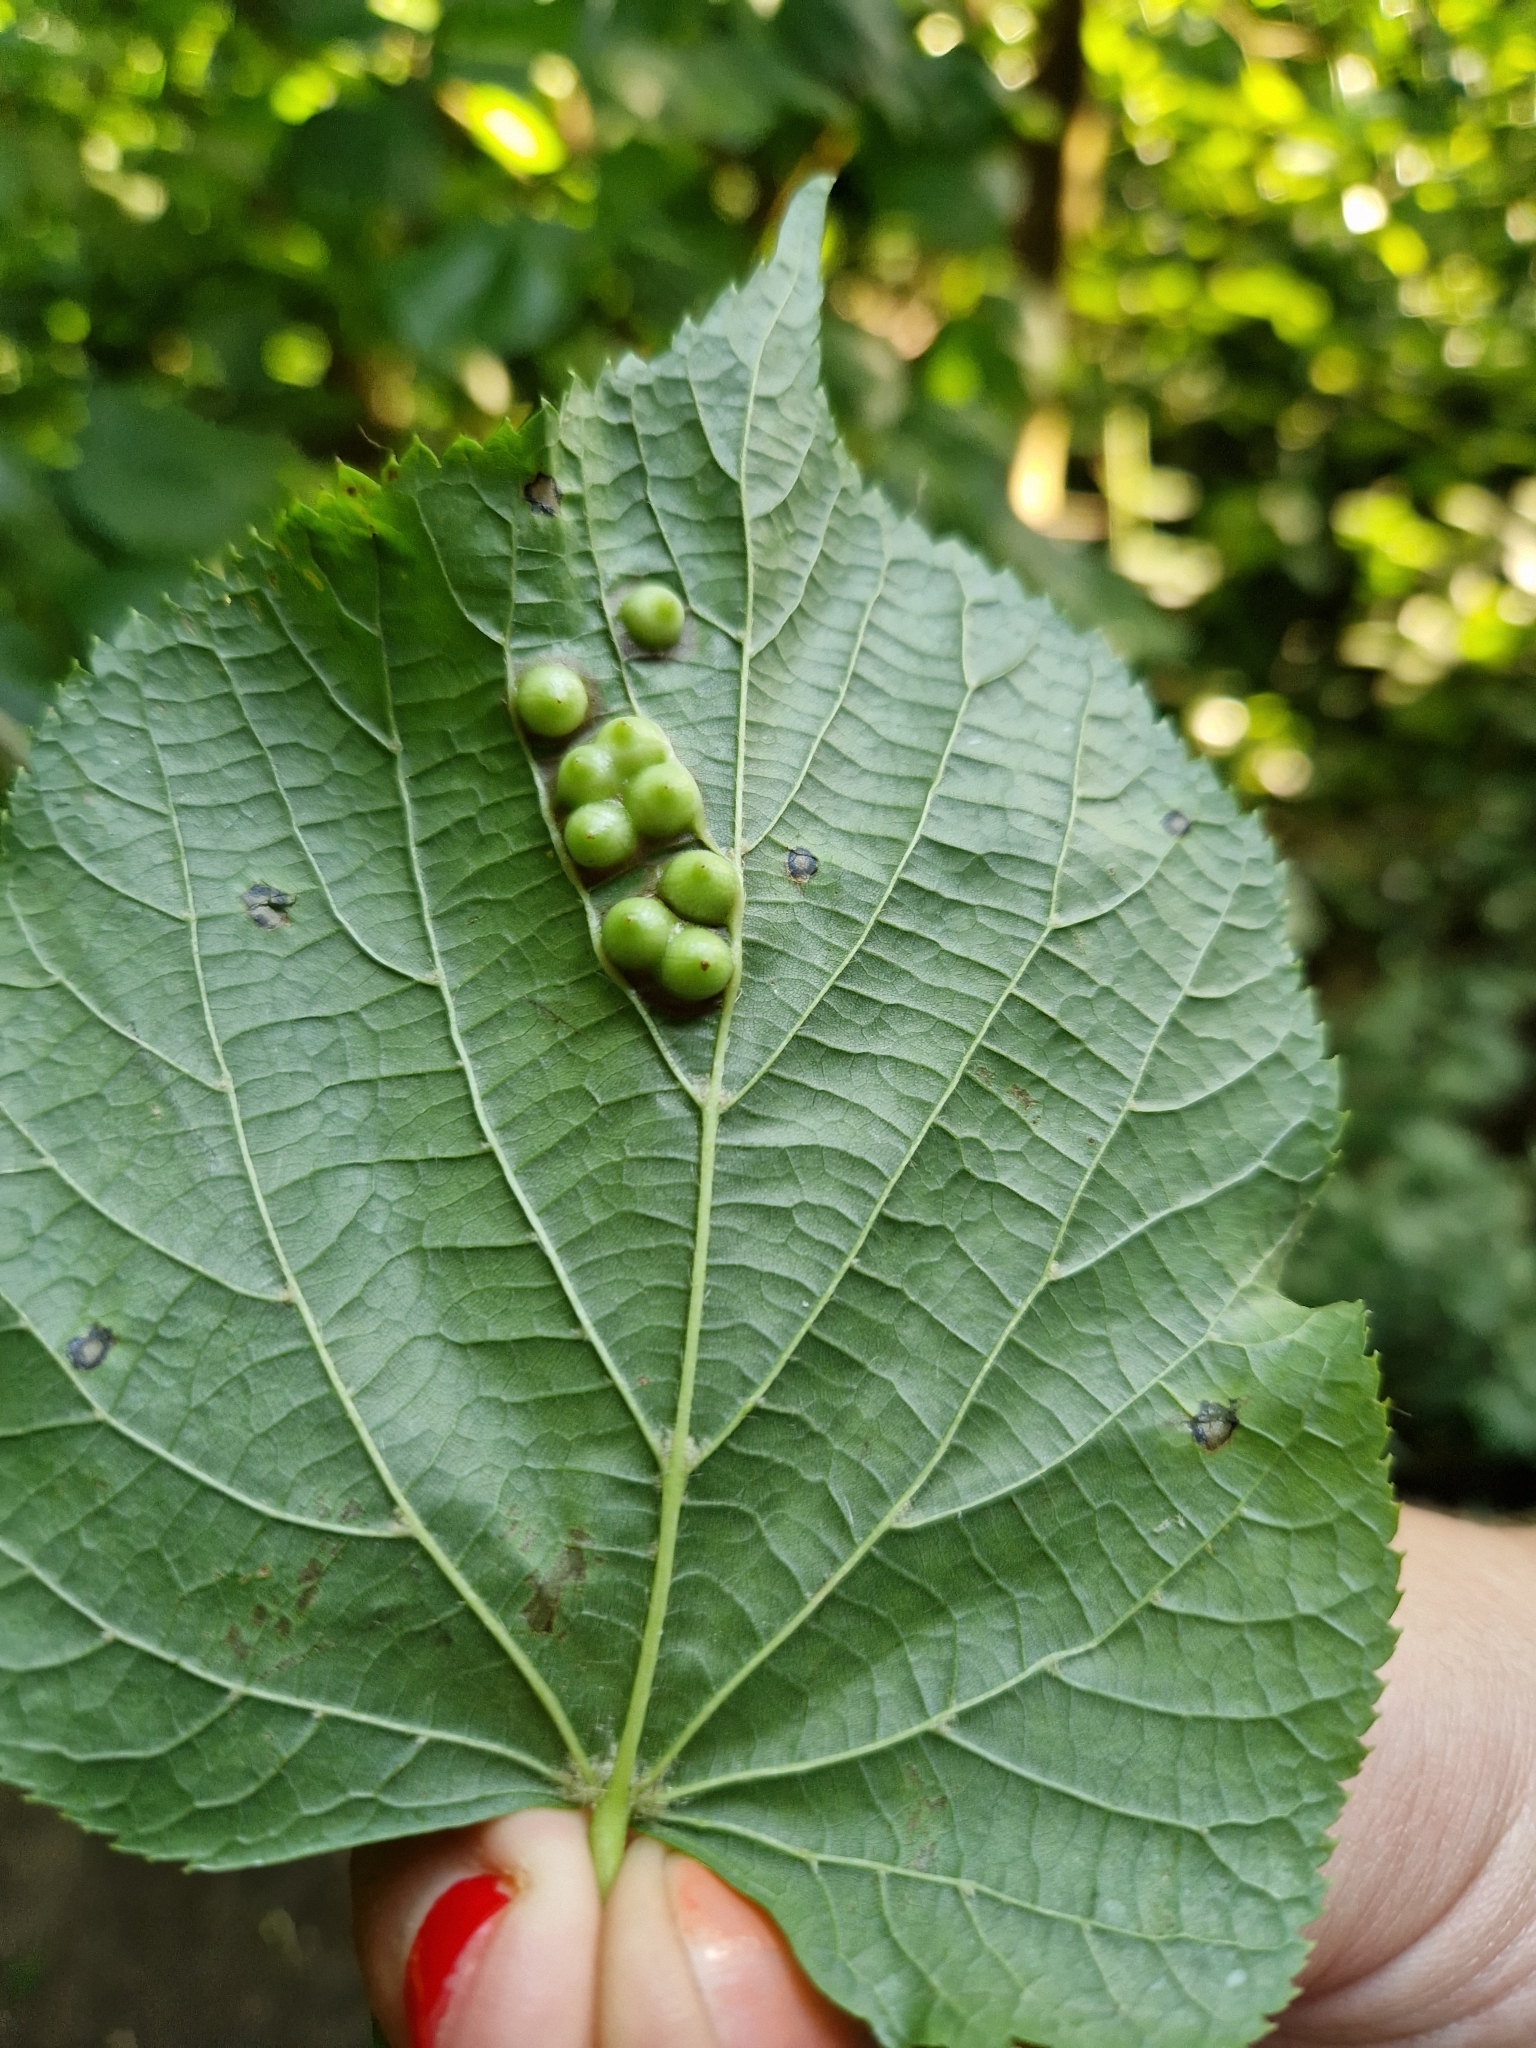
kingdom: Animalia
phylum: Arthropoda
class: Insecta
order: Diptera
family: Cecidomyiidae
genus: Didymomyia
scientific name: Didymomyia tiliacea
